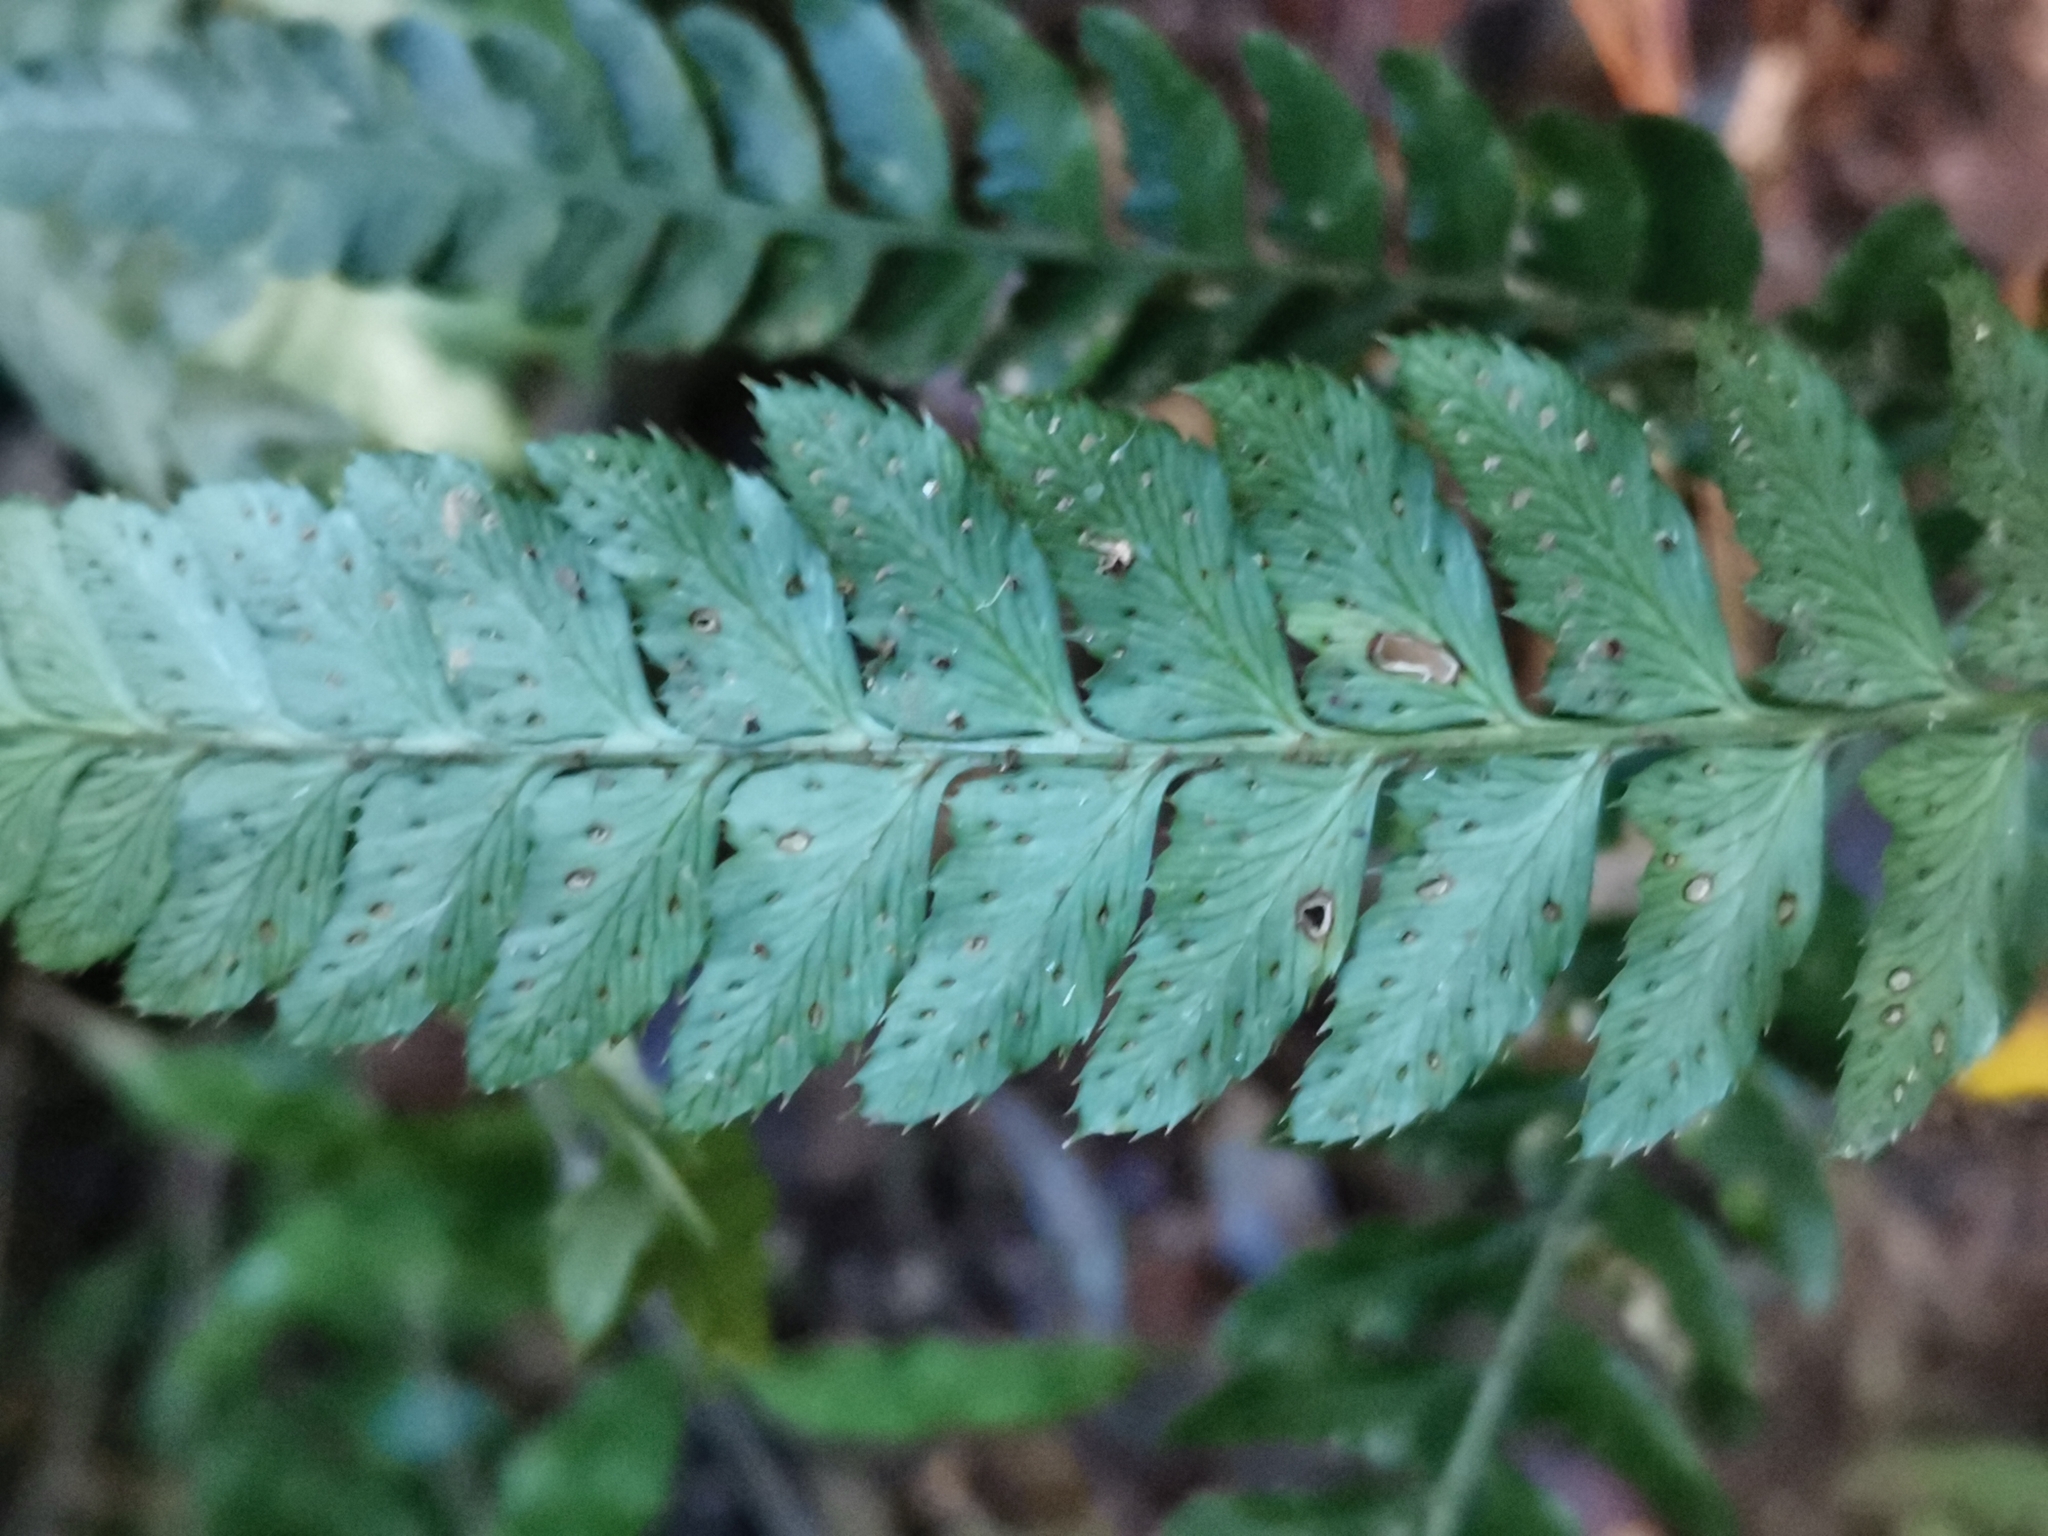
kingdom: Plantae
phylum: Tracheophyta
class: Polypodiopsida
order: Polypodiales
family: Dryopteridaceae
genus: Arachniodes
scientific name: Arachniodes simplicior
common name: Simpler hollyfern
